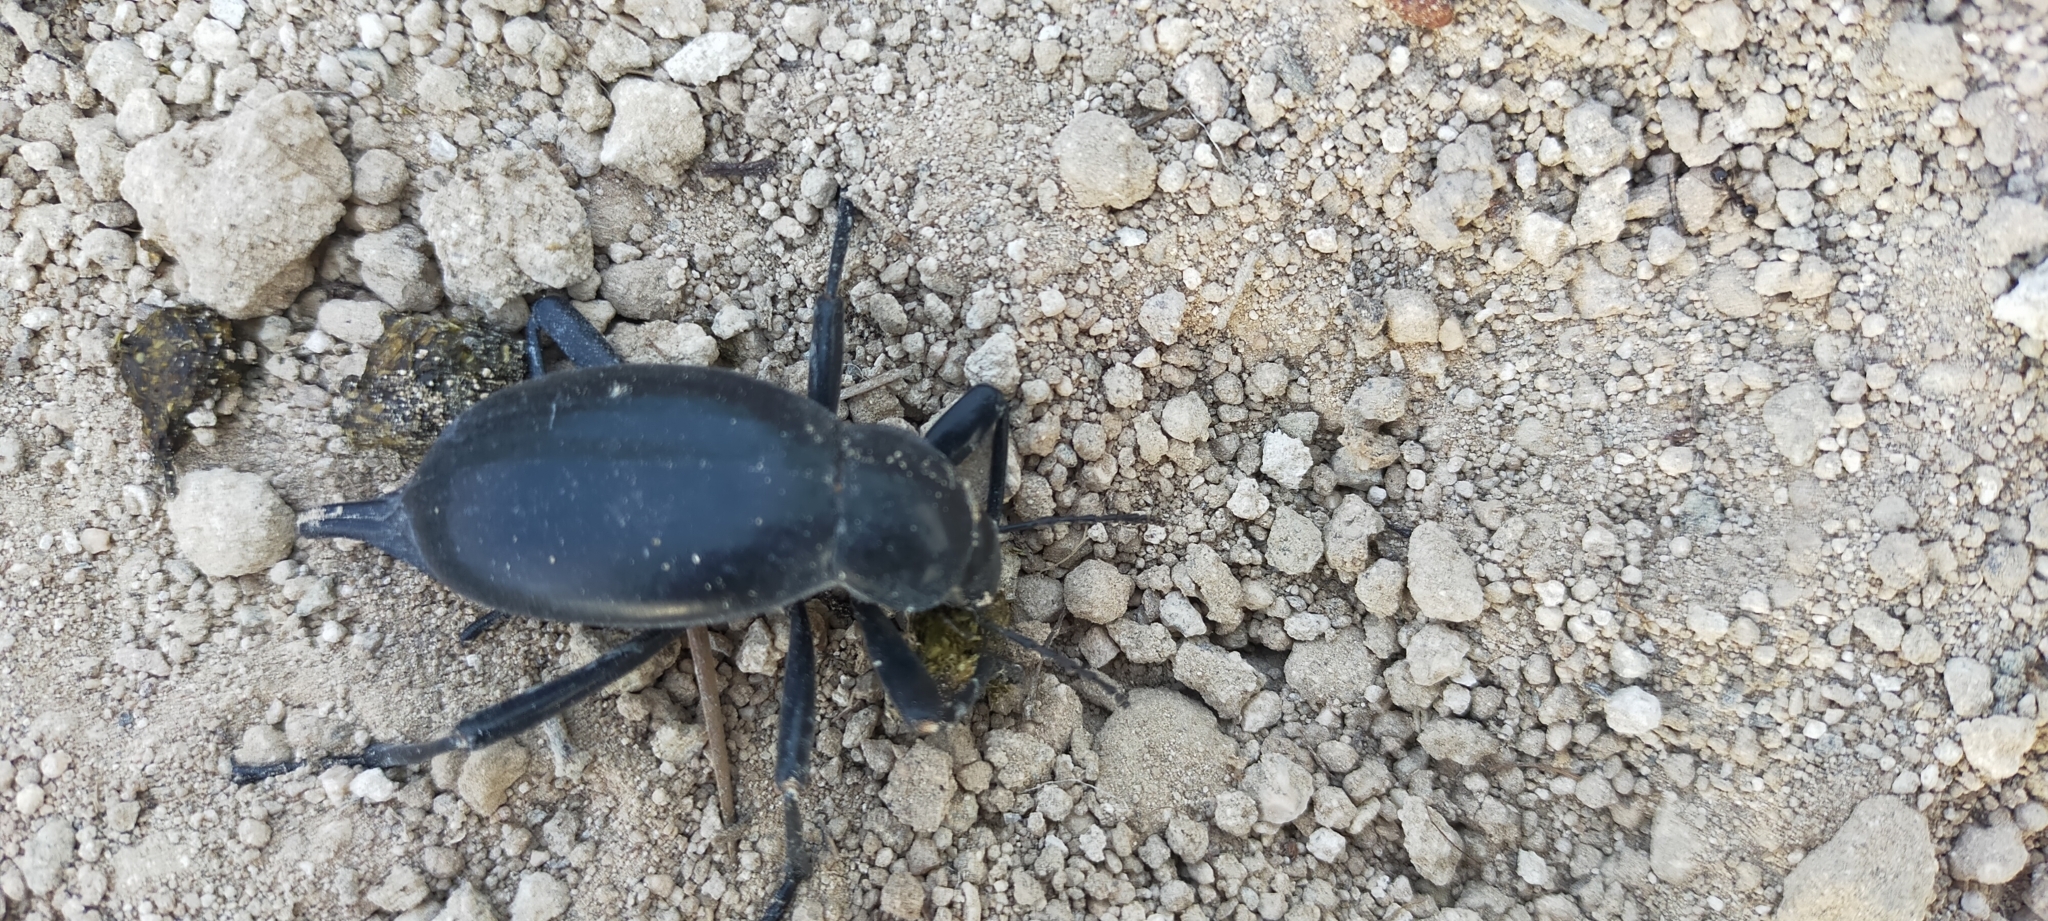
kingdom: Animalia
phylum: Arthropoda
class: Insecta
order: Coleoptera
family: Tenebrionidae
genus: Blaps
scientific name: Blaps waltli
